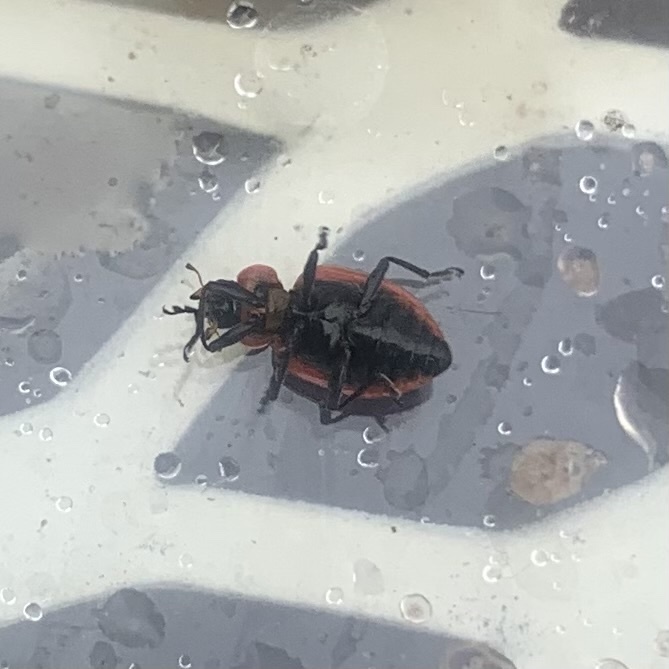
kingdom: Animalia
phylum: Arthropoda
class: Insecta
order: Coleoptera
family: Coccinellidae
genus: Coleomegilla
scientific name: Coleomegilla maculata
